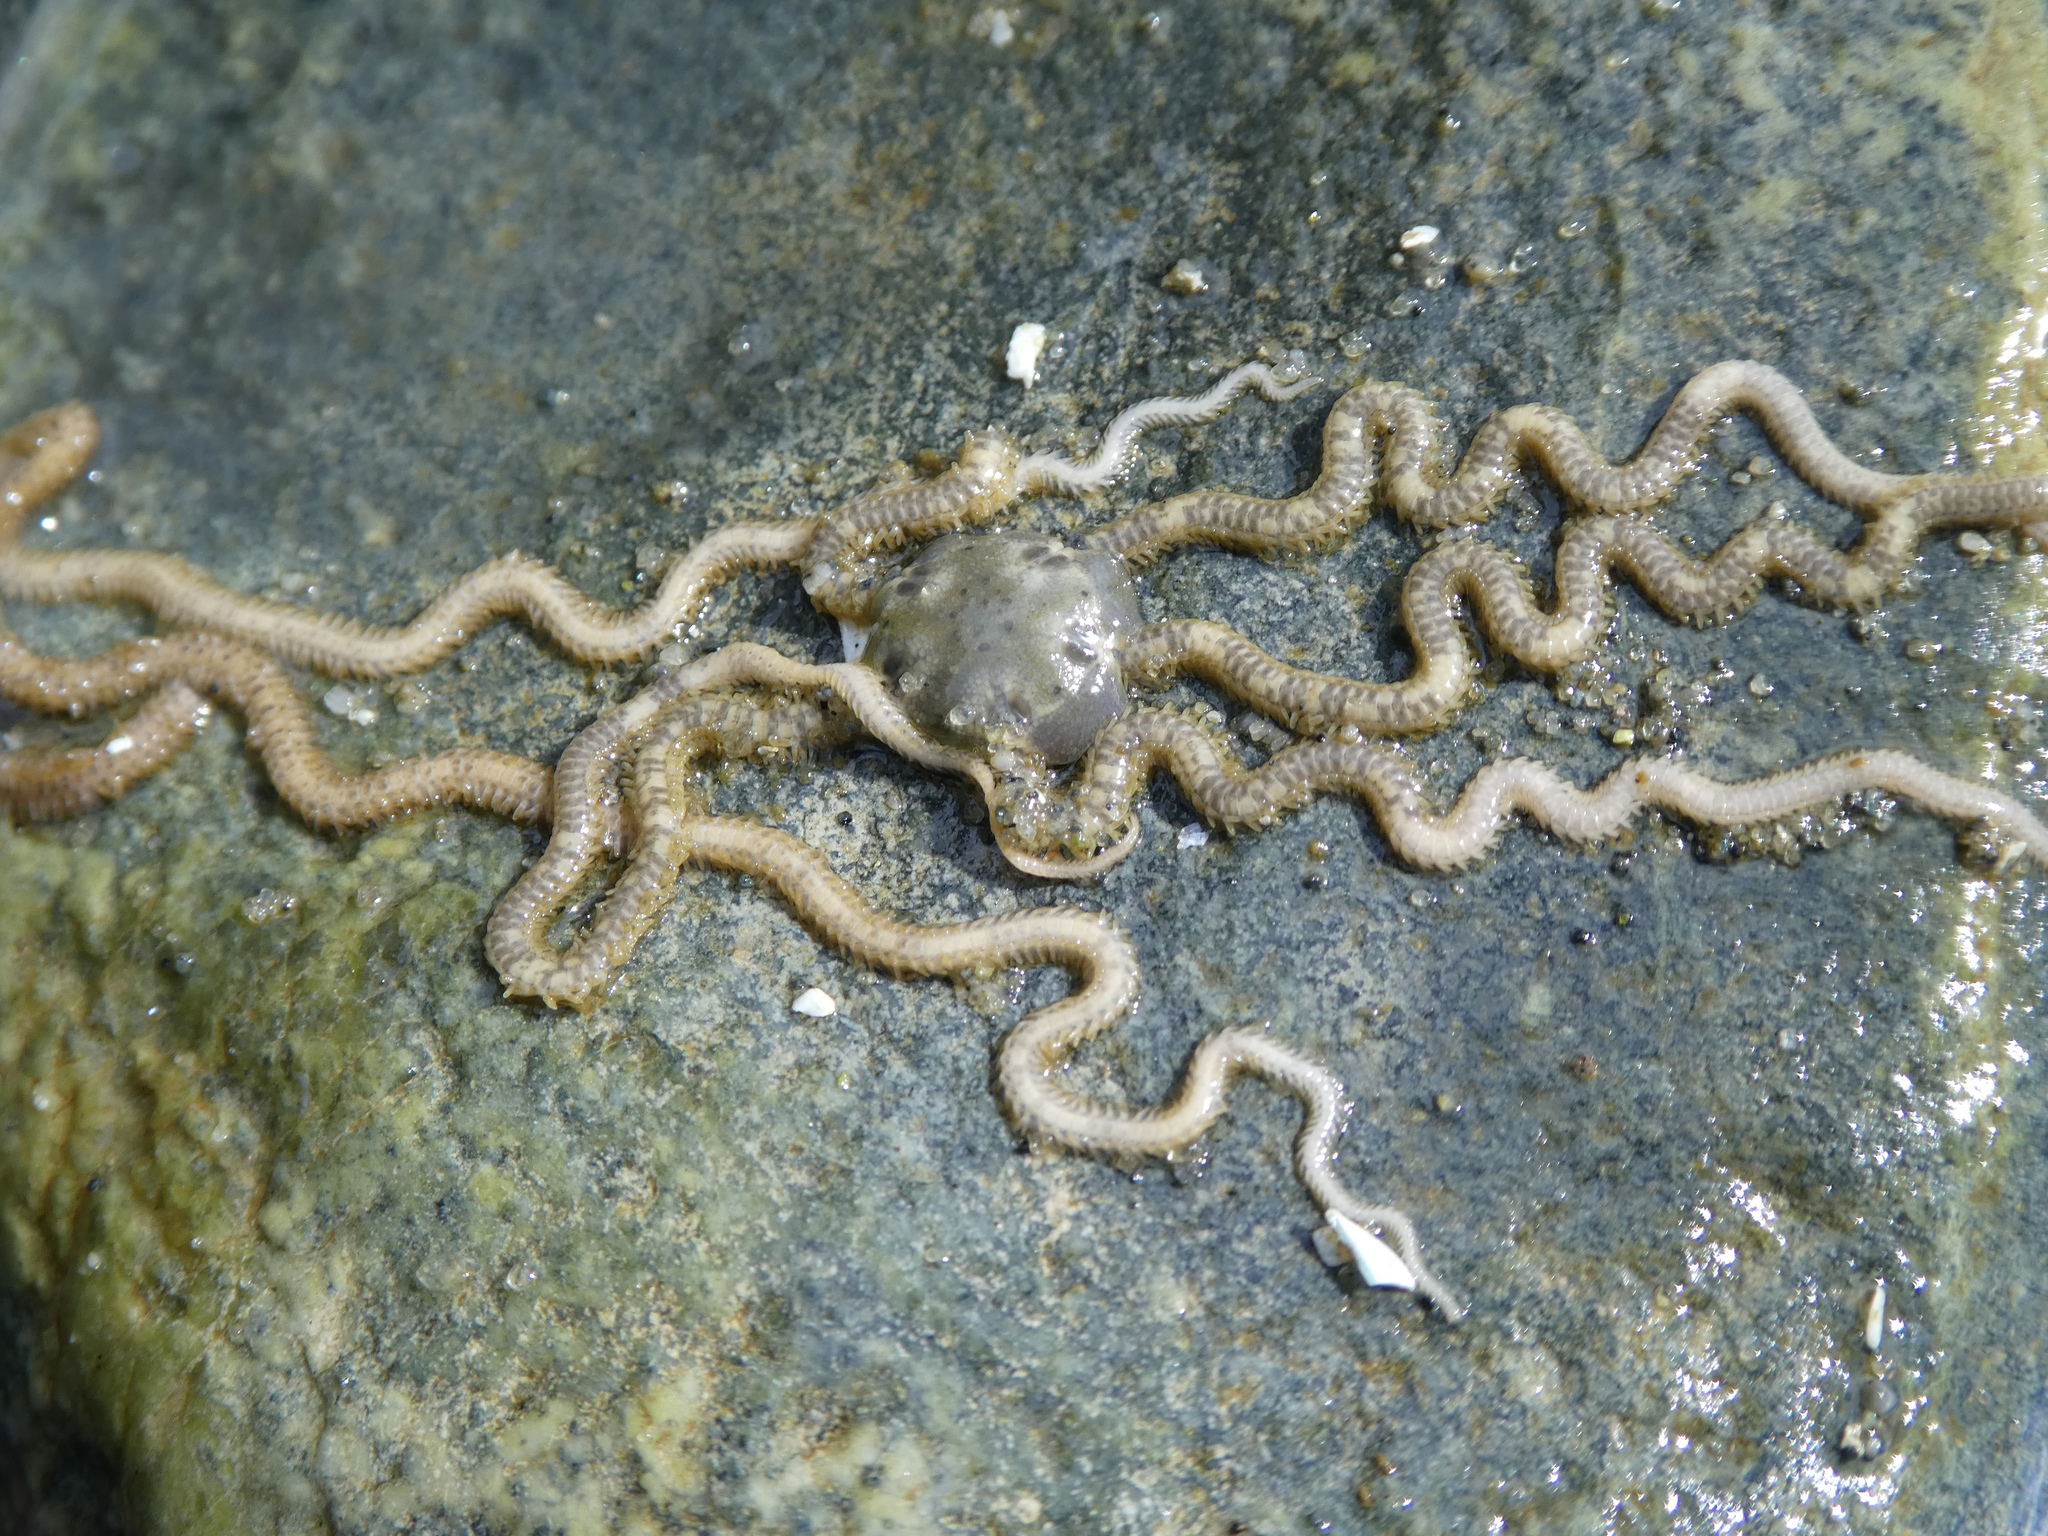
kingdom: Animalia
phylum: Echinodermata
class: Ophiuroidea
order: Amphilepidida
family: Amphiuridae
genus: Amphiodia
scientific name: Amphiodia occidentalis
